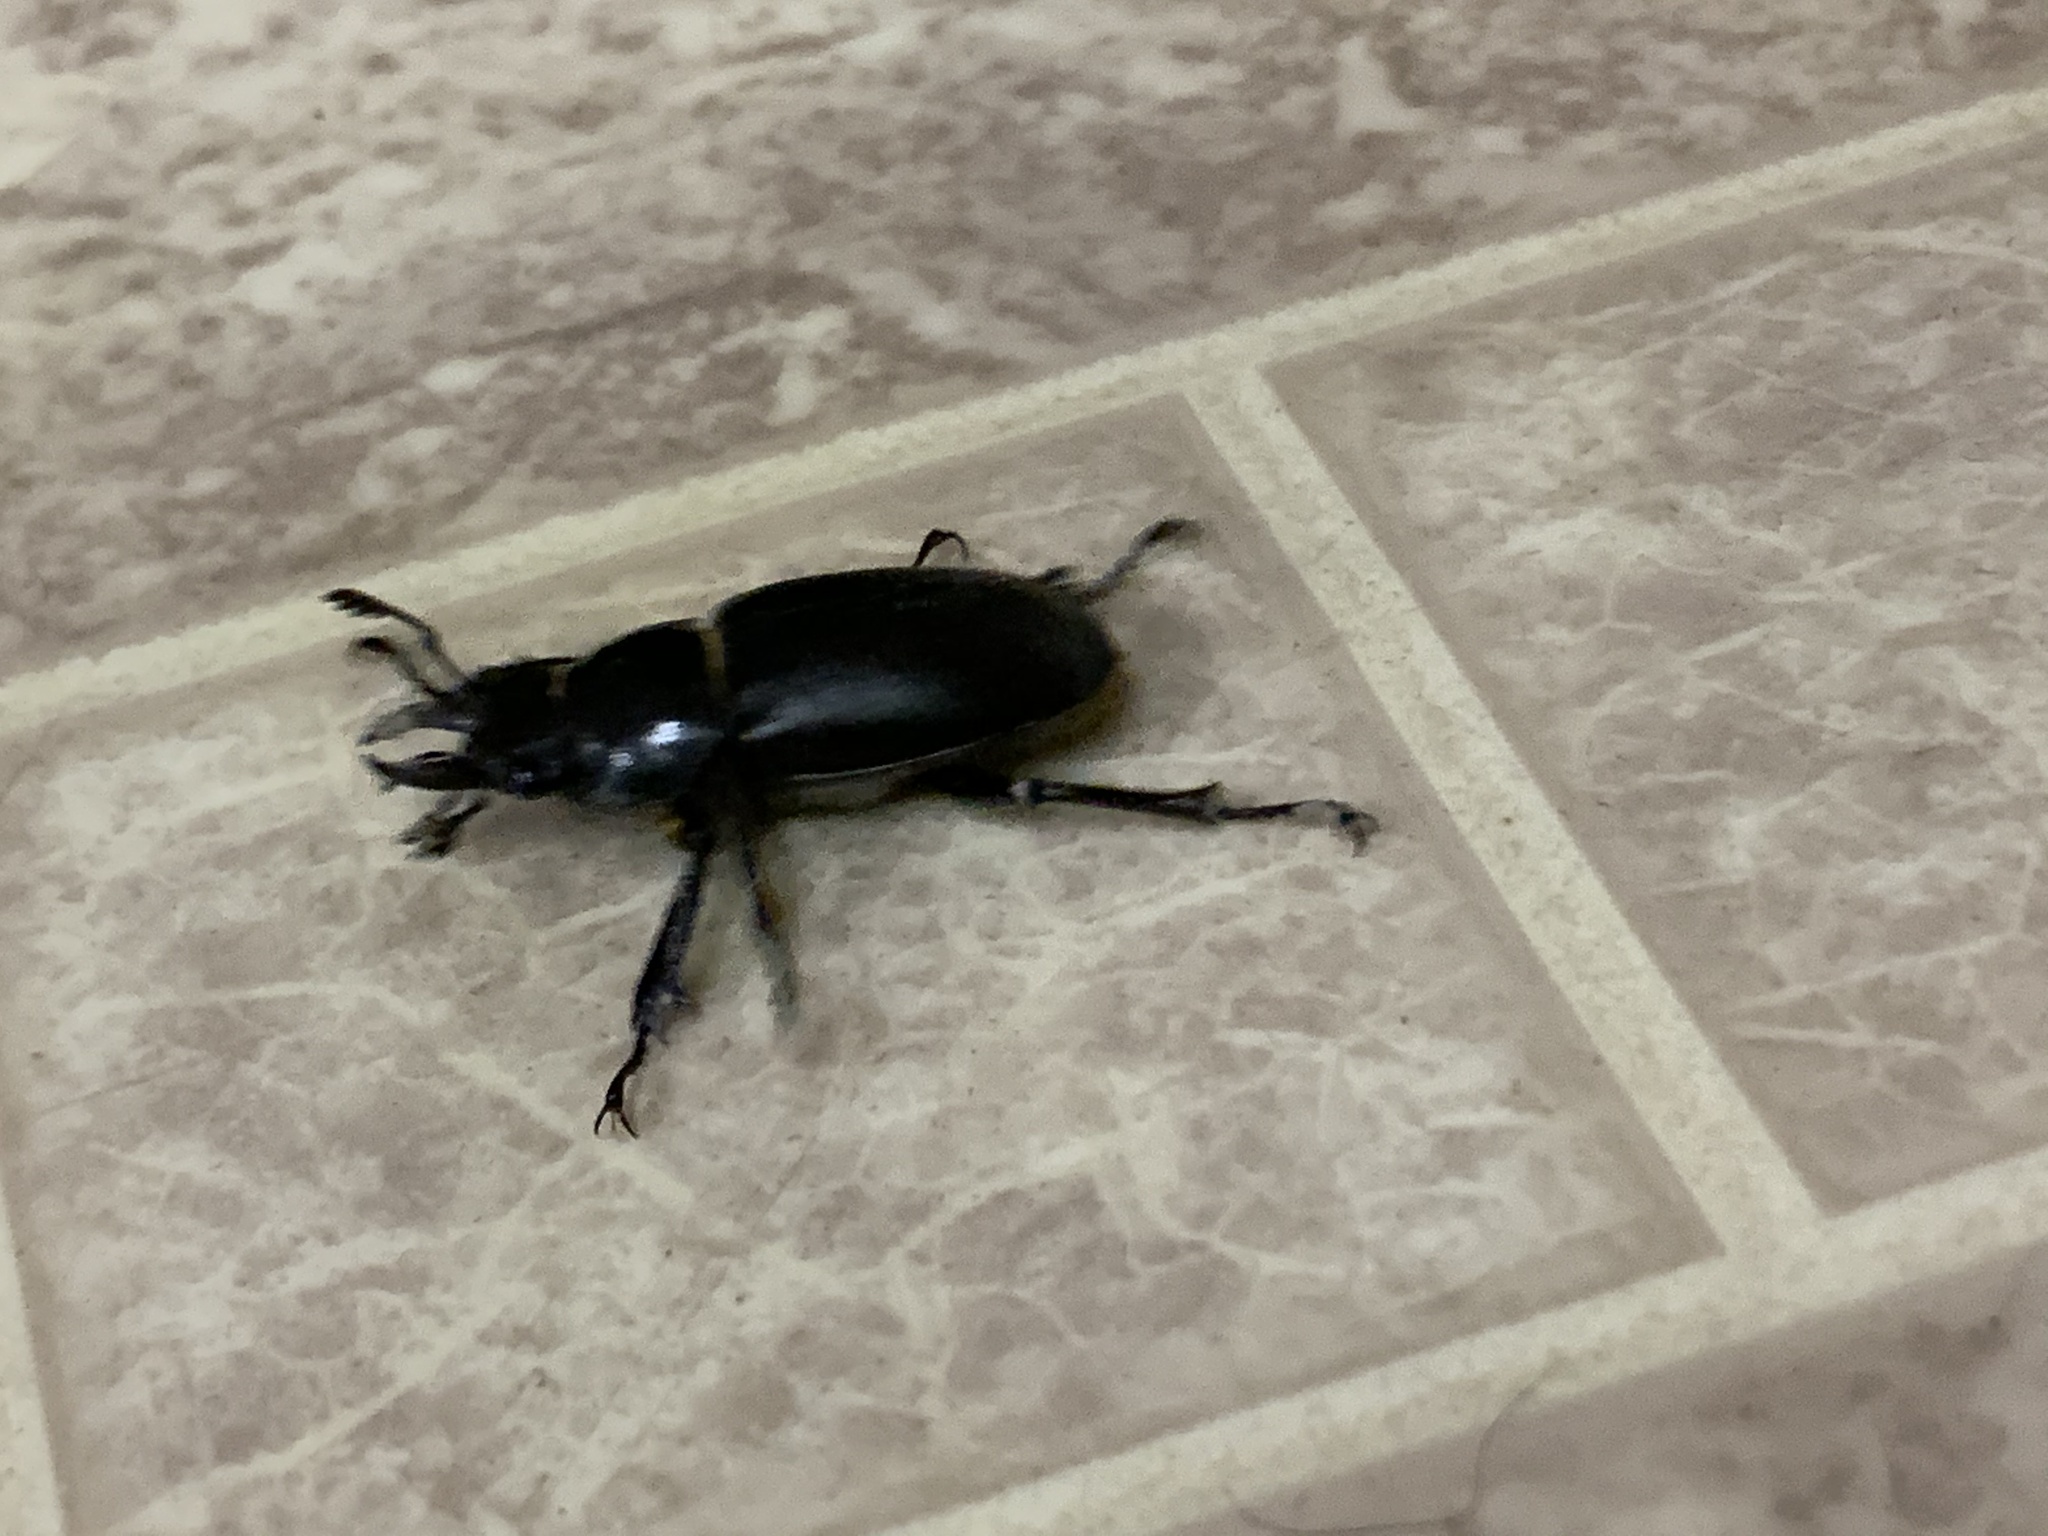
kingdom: Animalia
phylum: Arthropoda
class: Insecta
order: Coleoptera
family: Lucanidae
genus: Lucanus
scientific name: Lucanus placidus
